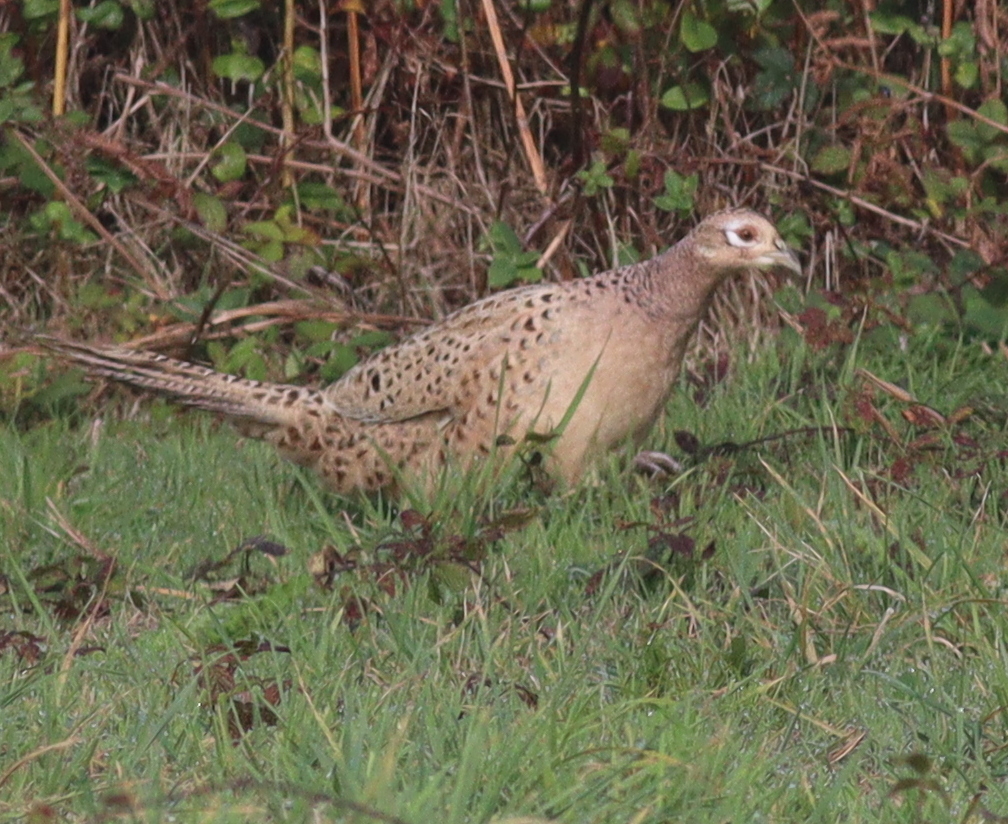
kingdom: Animalia
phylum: Chordata
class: Aves
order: Galliformes
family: Phasianidae
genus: Phasianus
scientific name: Phasianus colchicus
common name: Common pheasant
